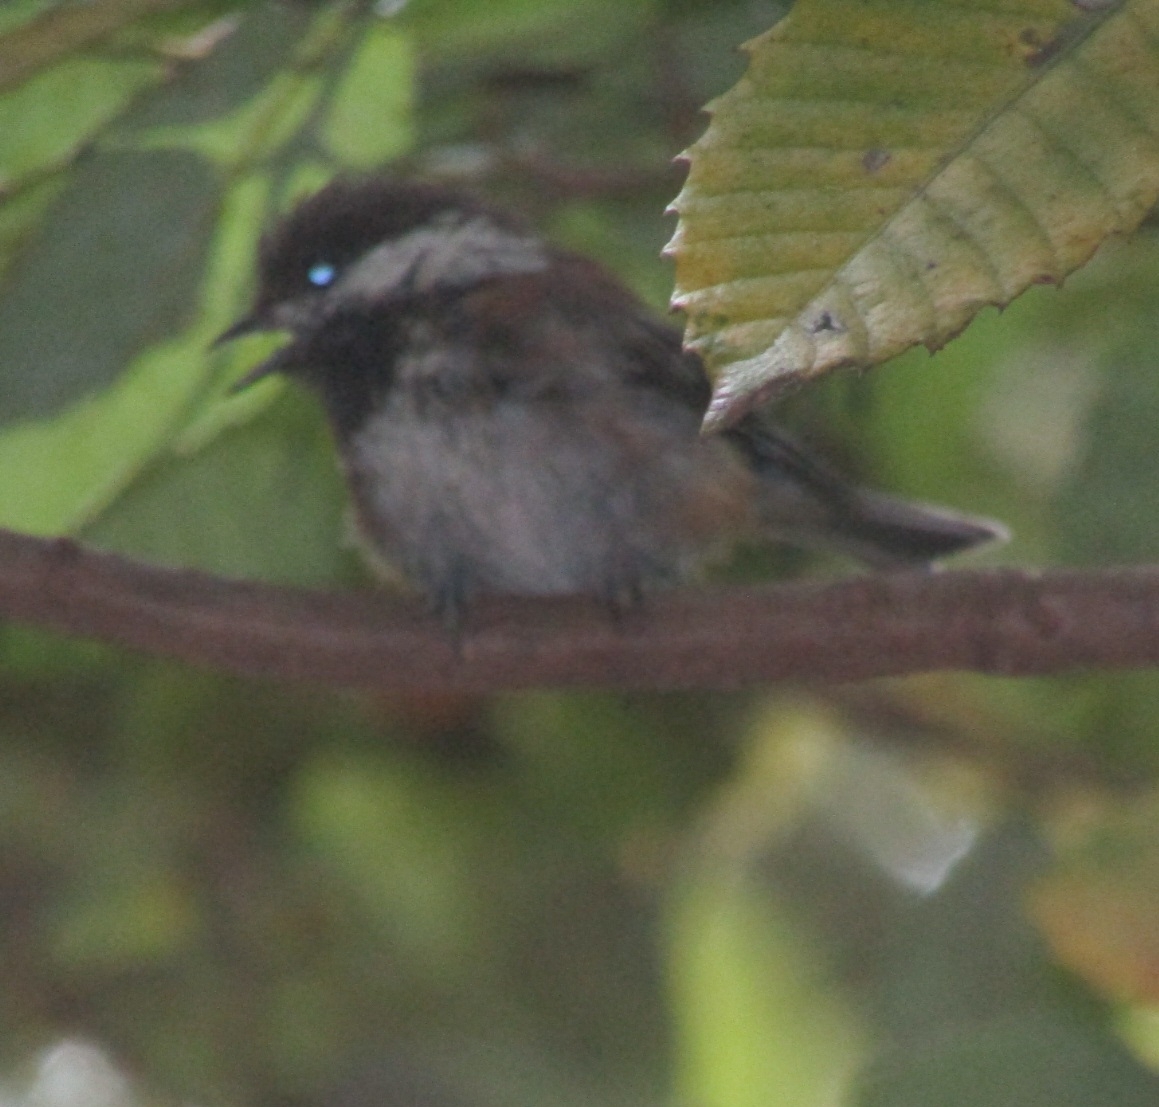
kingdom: Animalia
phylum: Chordata
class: Aves
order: Passeriformes
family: Paridae
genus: Poecile
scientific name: Poecile rufescens
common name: Chestnut-backed chickadee
